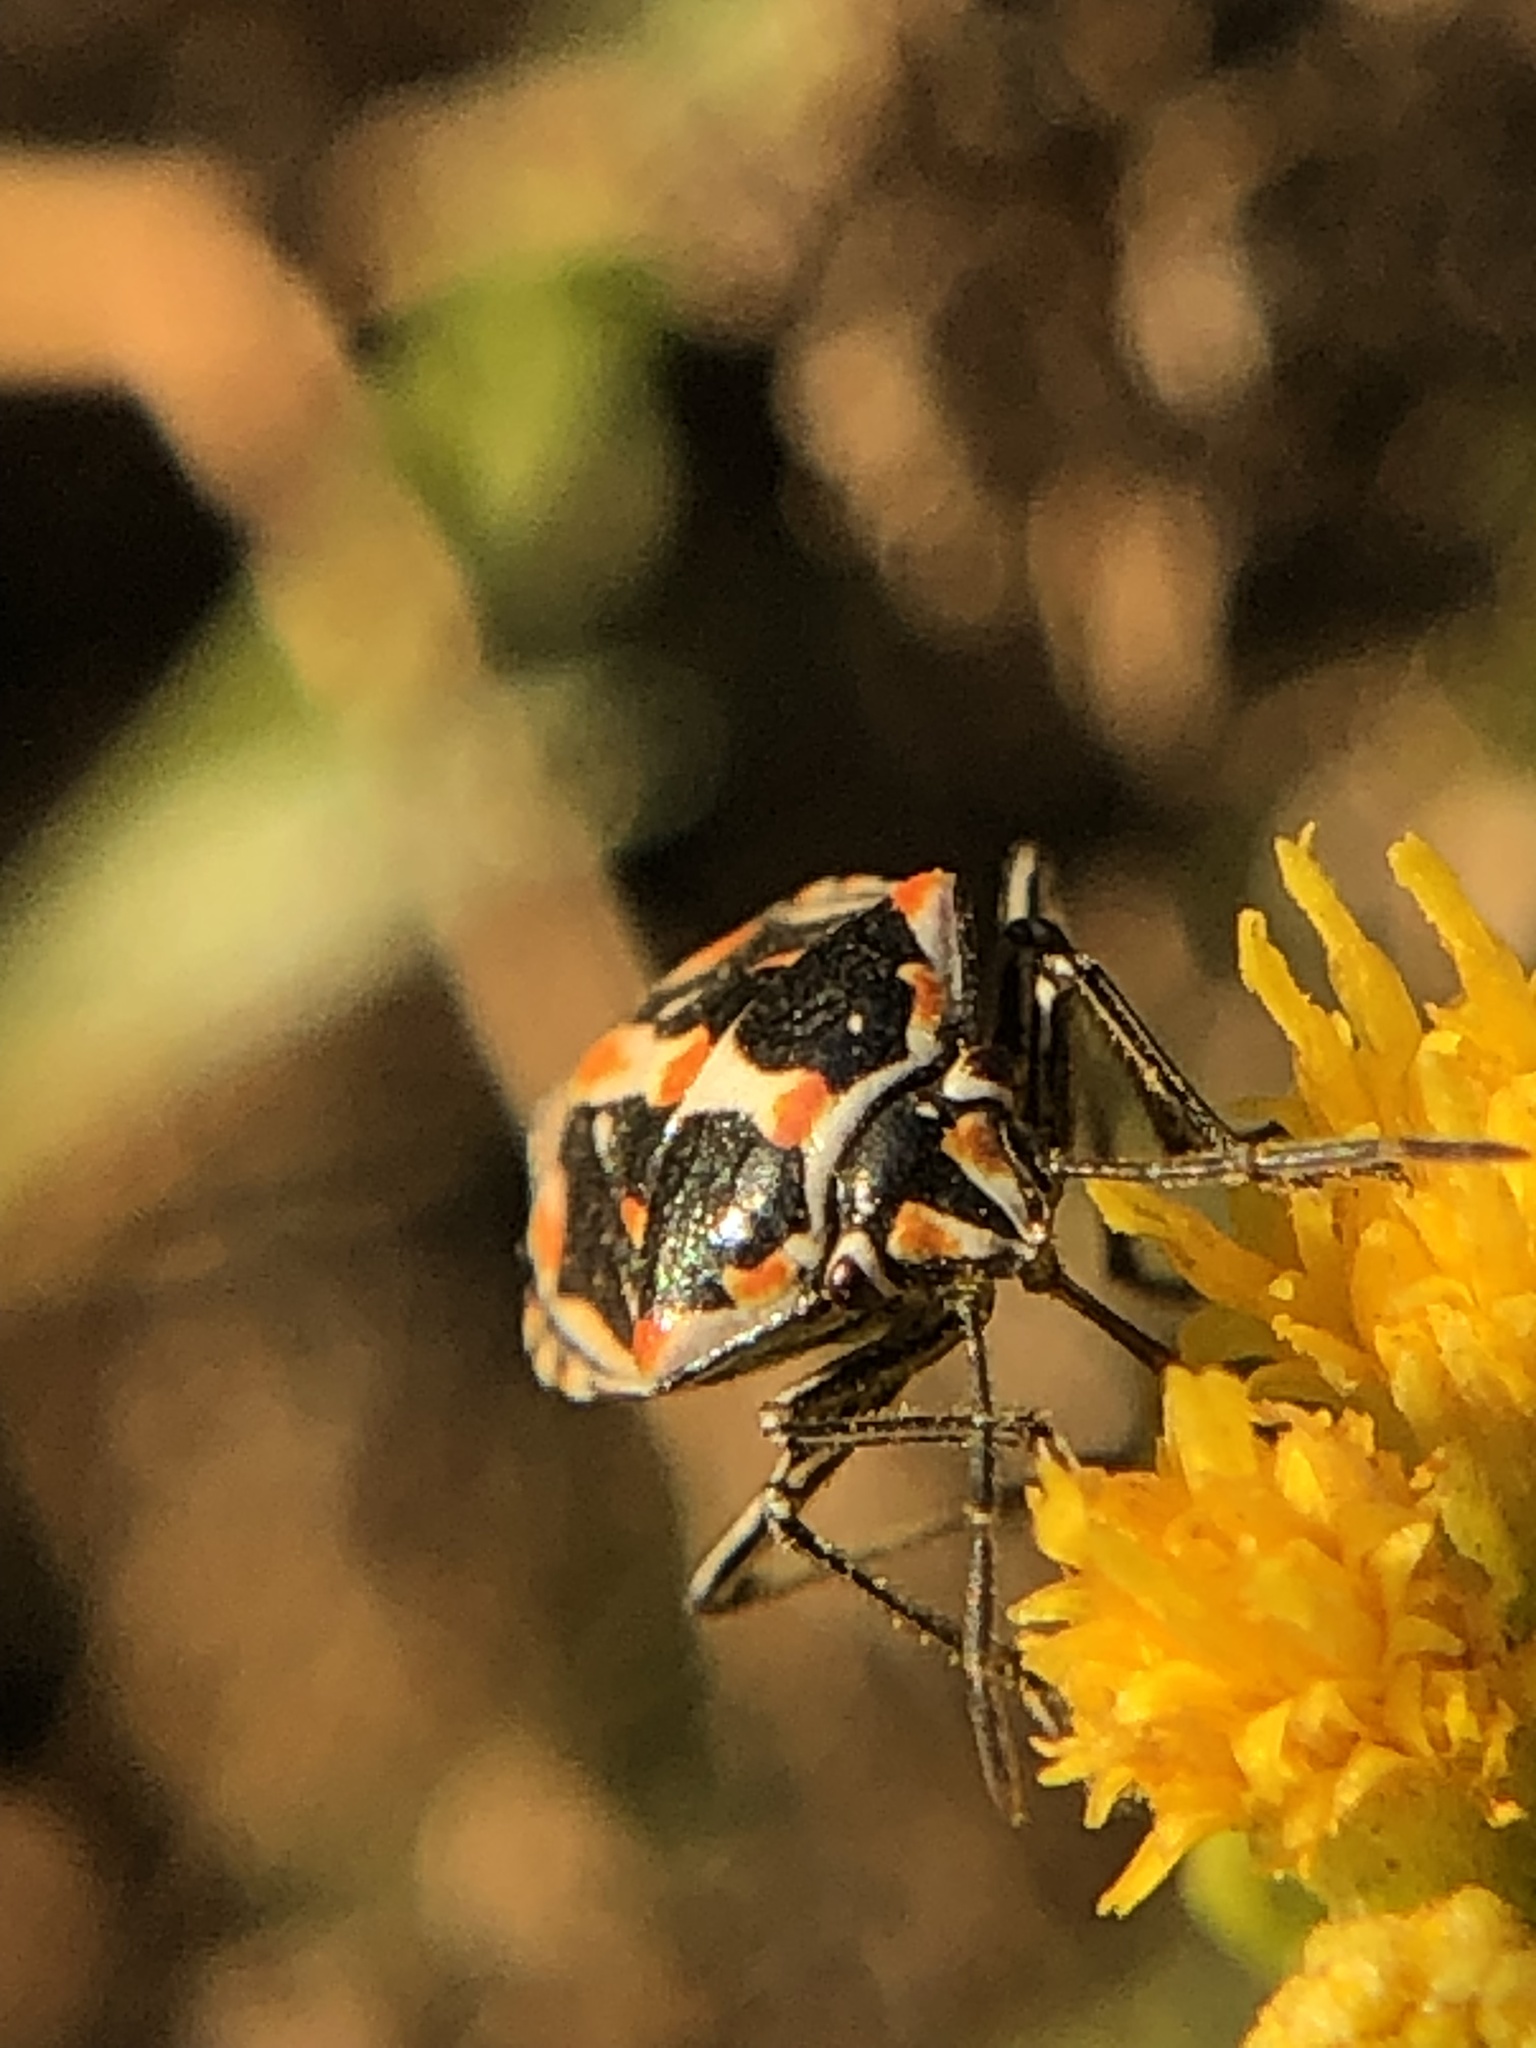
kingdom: Animalia
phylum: Arthropoda
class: Insecta
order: Hemiptera
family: Pentatomidae
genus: Bagrada
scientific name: Bagrada hilaris
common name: Bagrada bug
